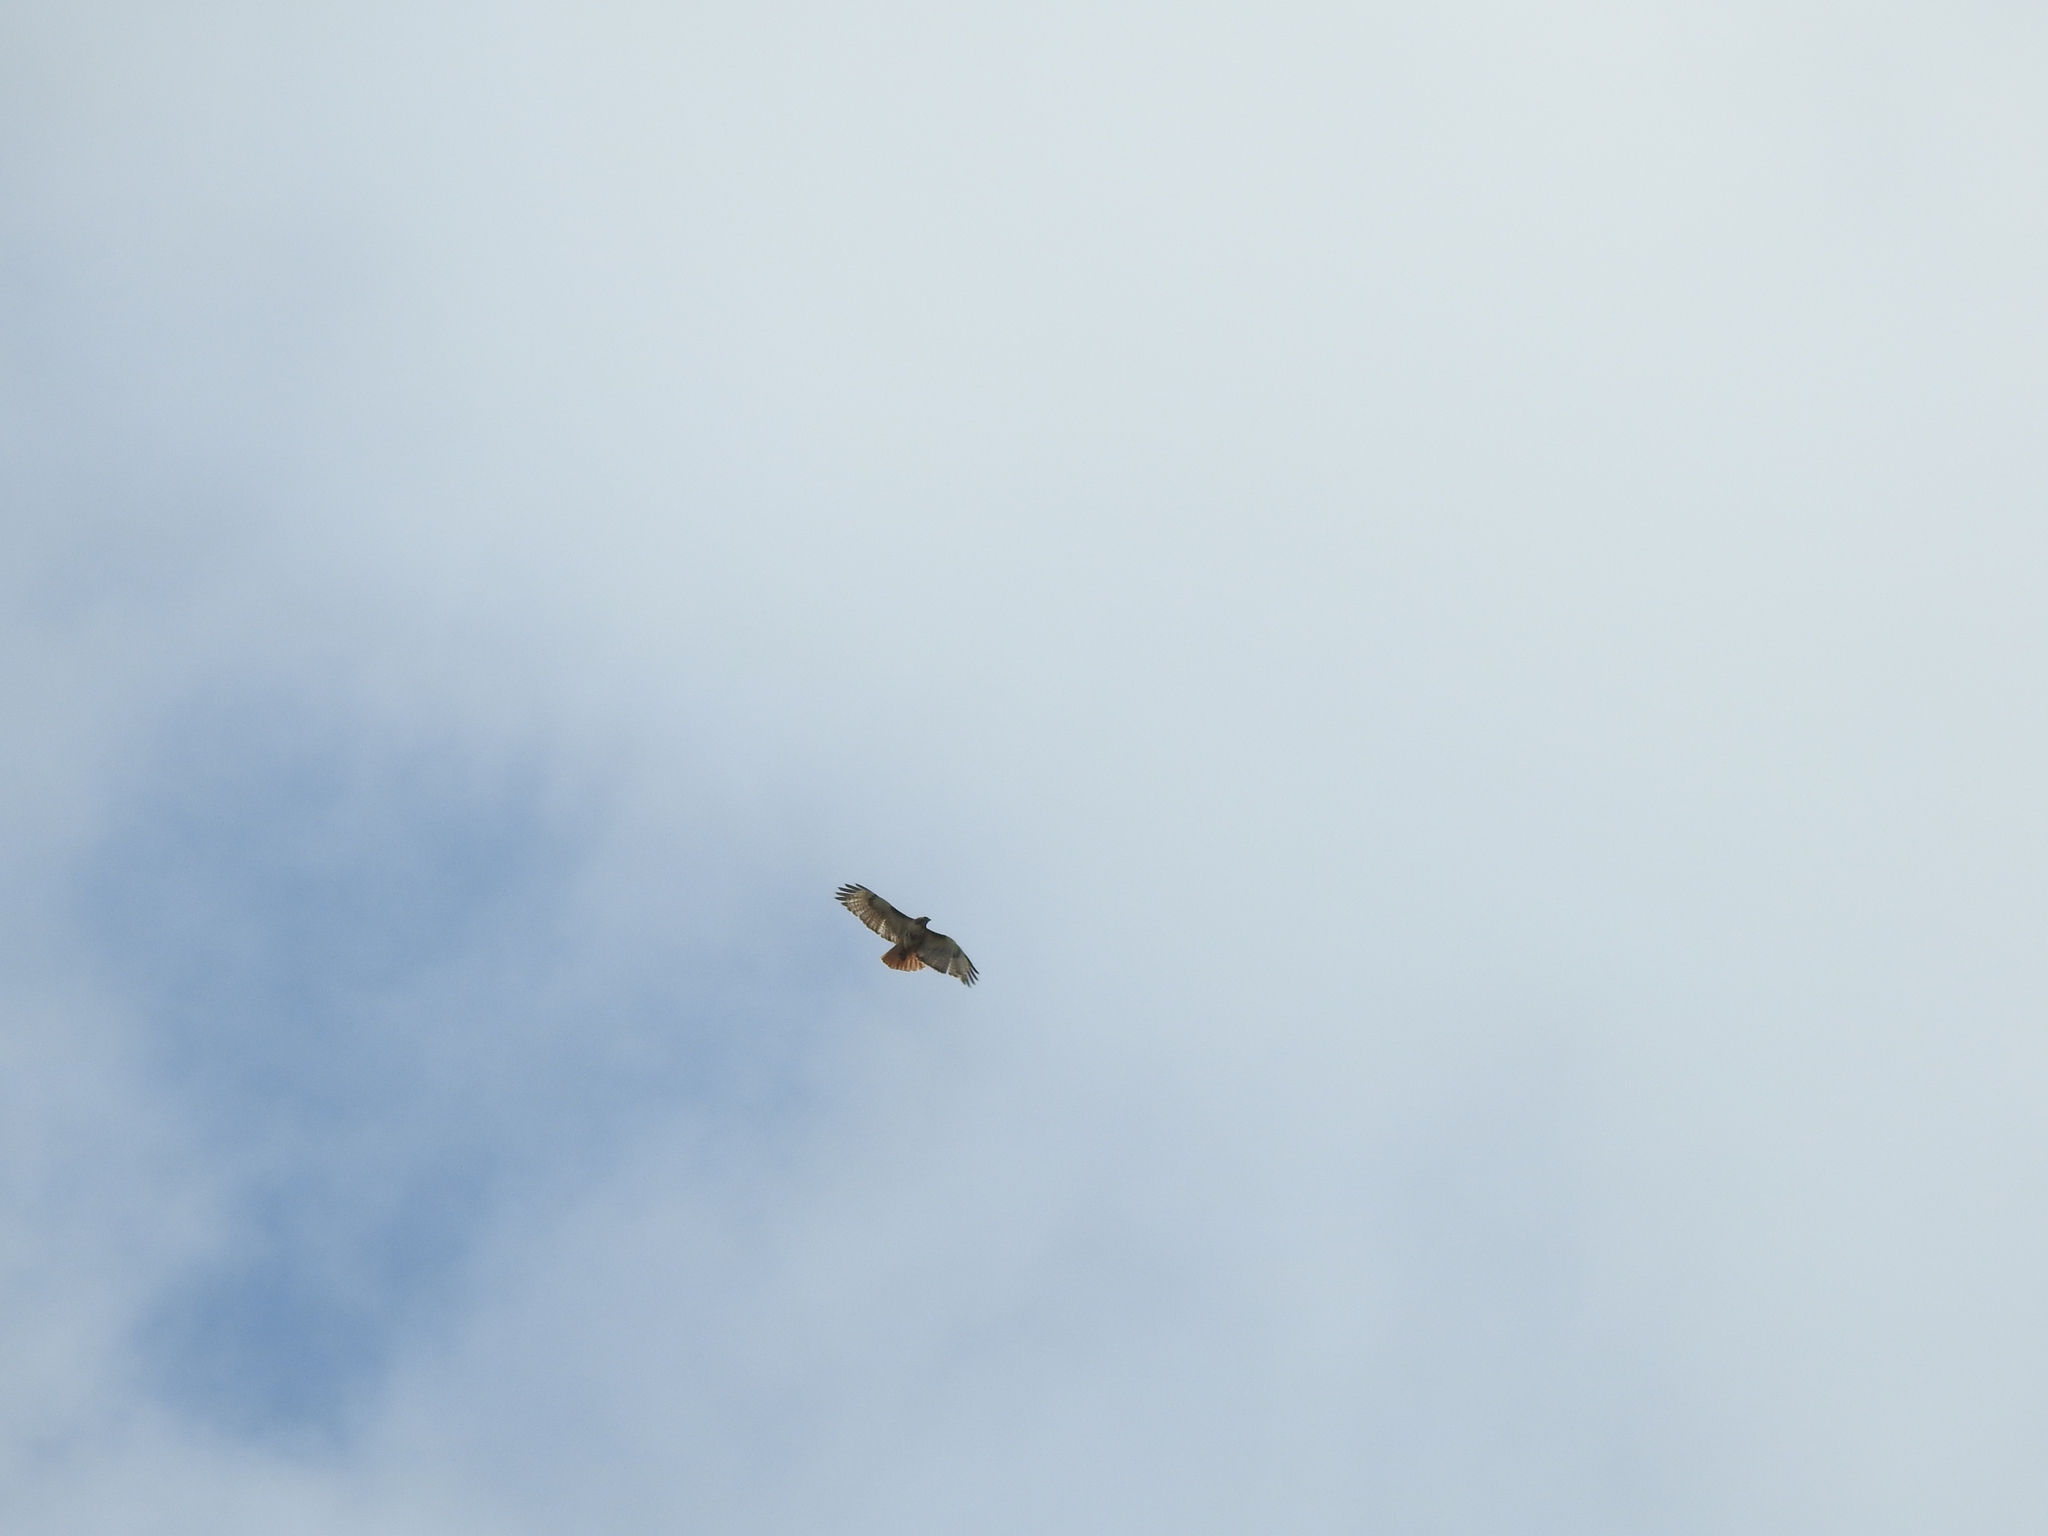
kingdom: Animalia
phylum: Chordata
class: Aves
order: Accipitriformes
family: Accipitridae
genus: Buteo
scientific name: Buteo jamaicensis
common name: Red-tailed hawk
